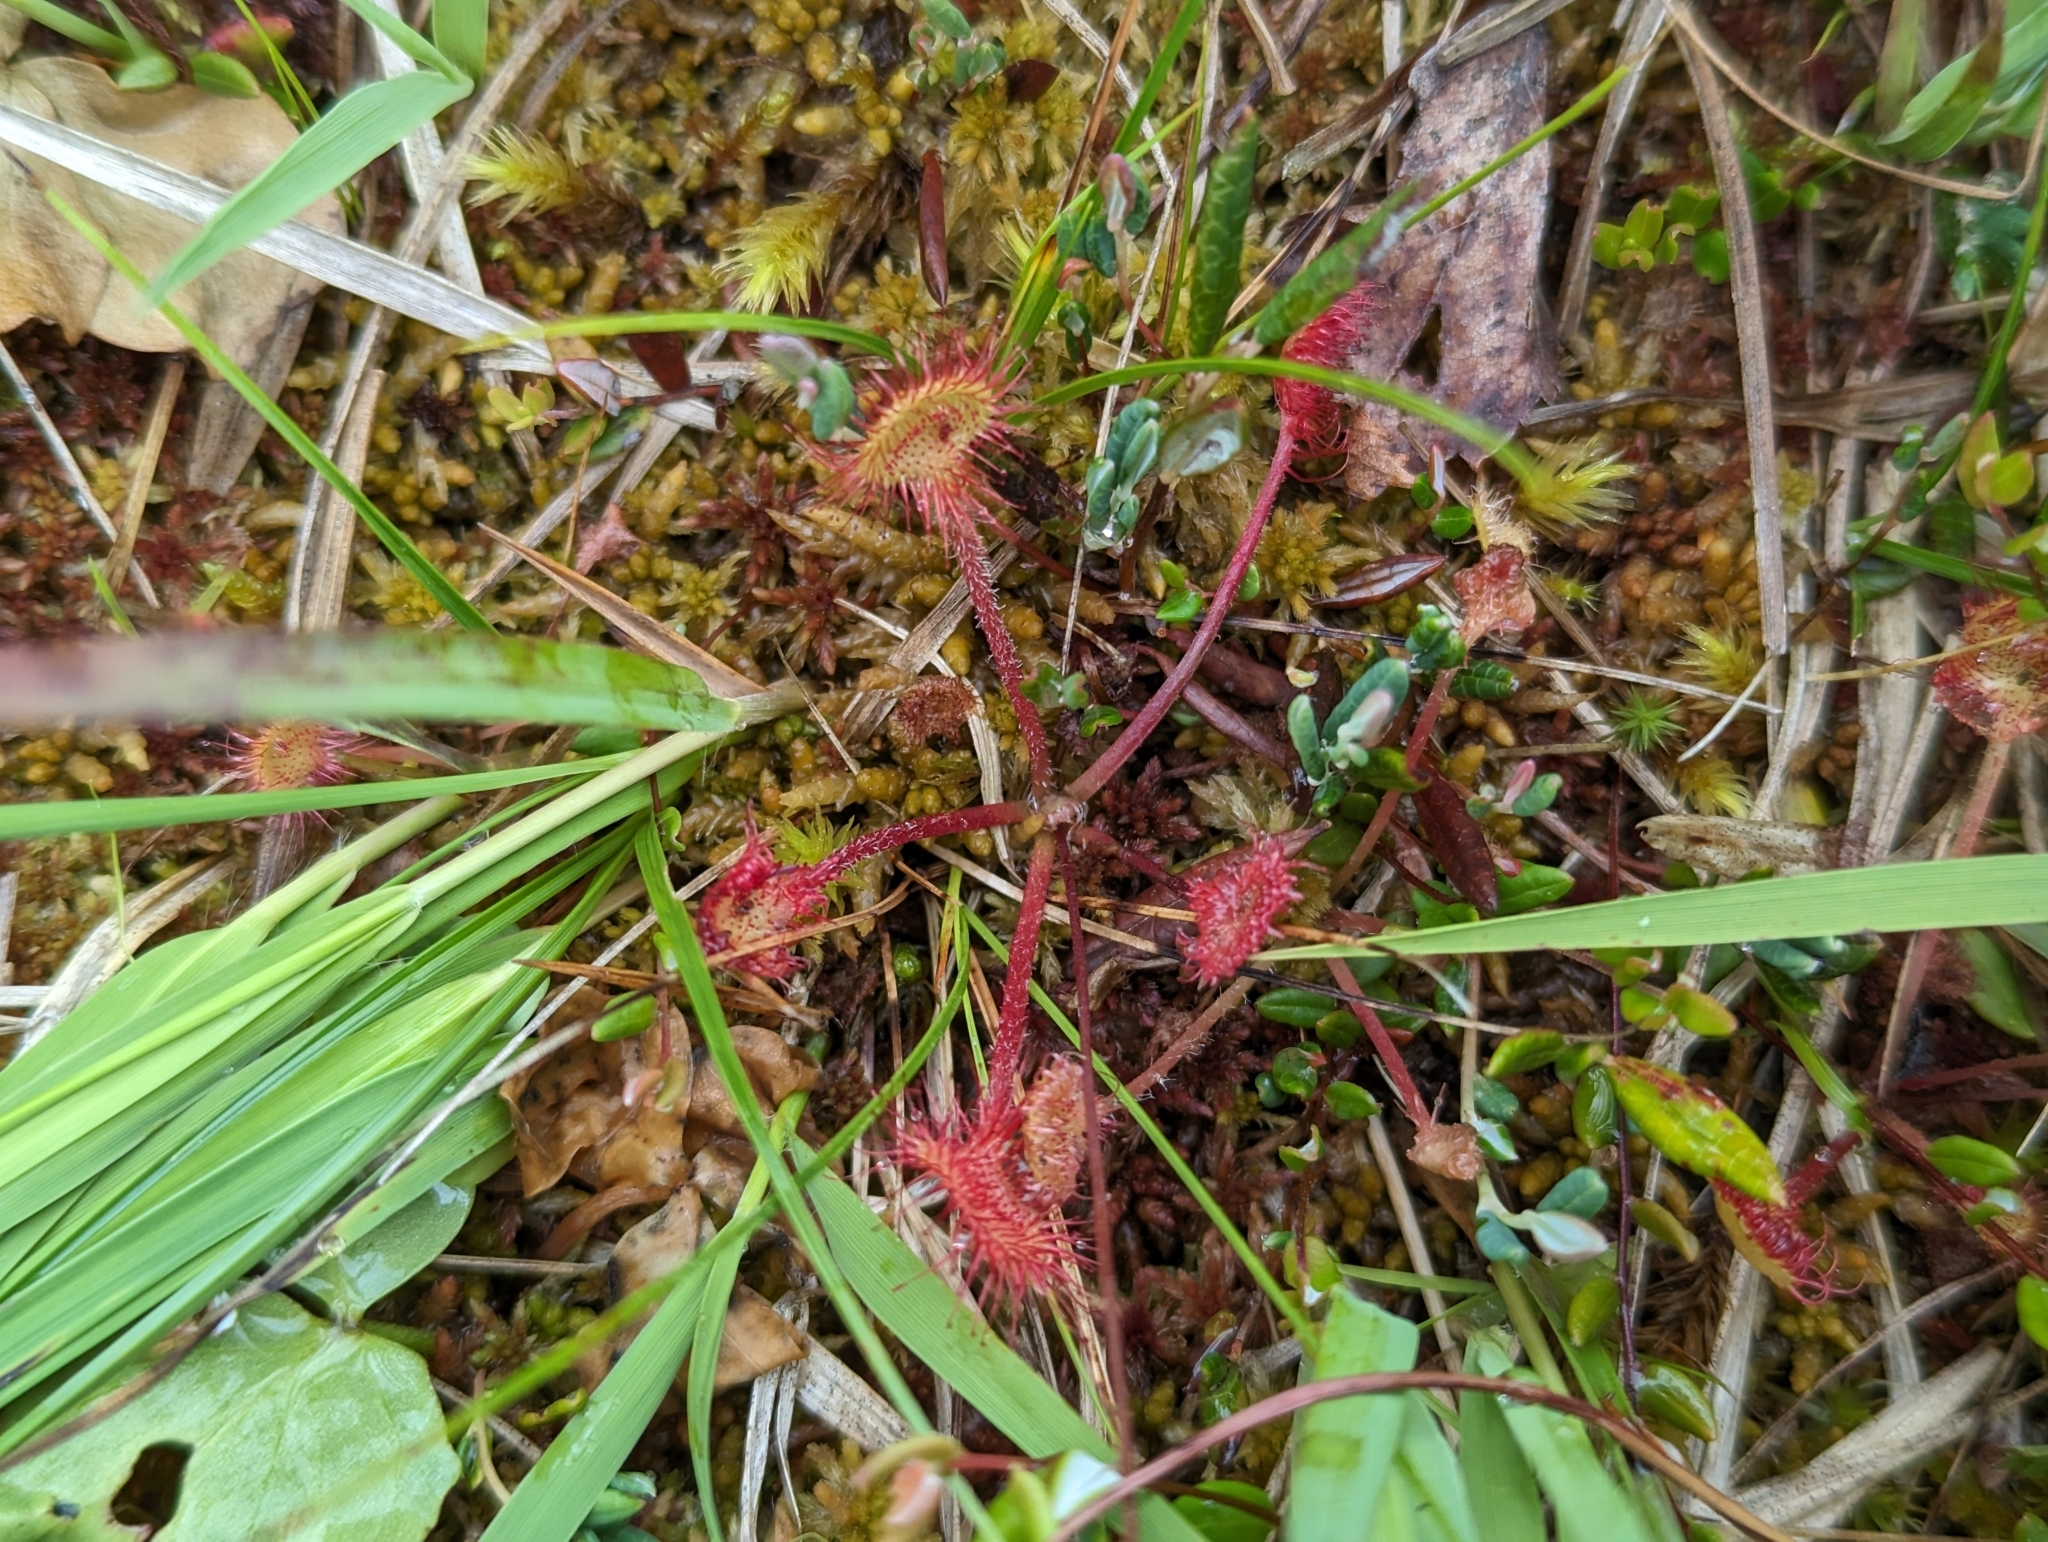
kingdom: Plantae
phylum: Tracheophyta
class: Magnoliopsida
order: Caryophyllales
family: Droseraceae
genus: Drosera
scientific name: Drosera rotundifolia
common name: Round-leaved sundew
